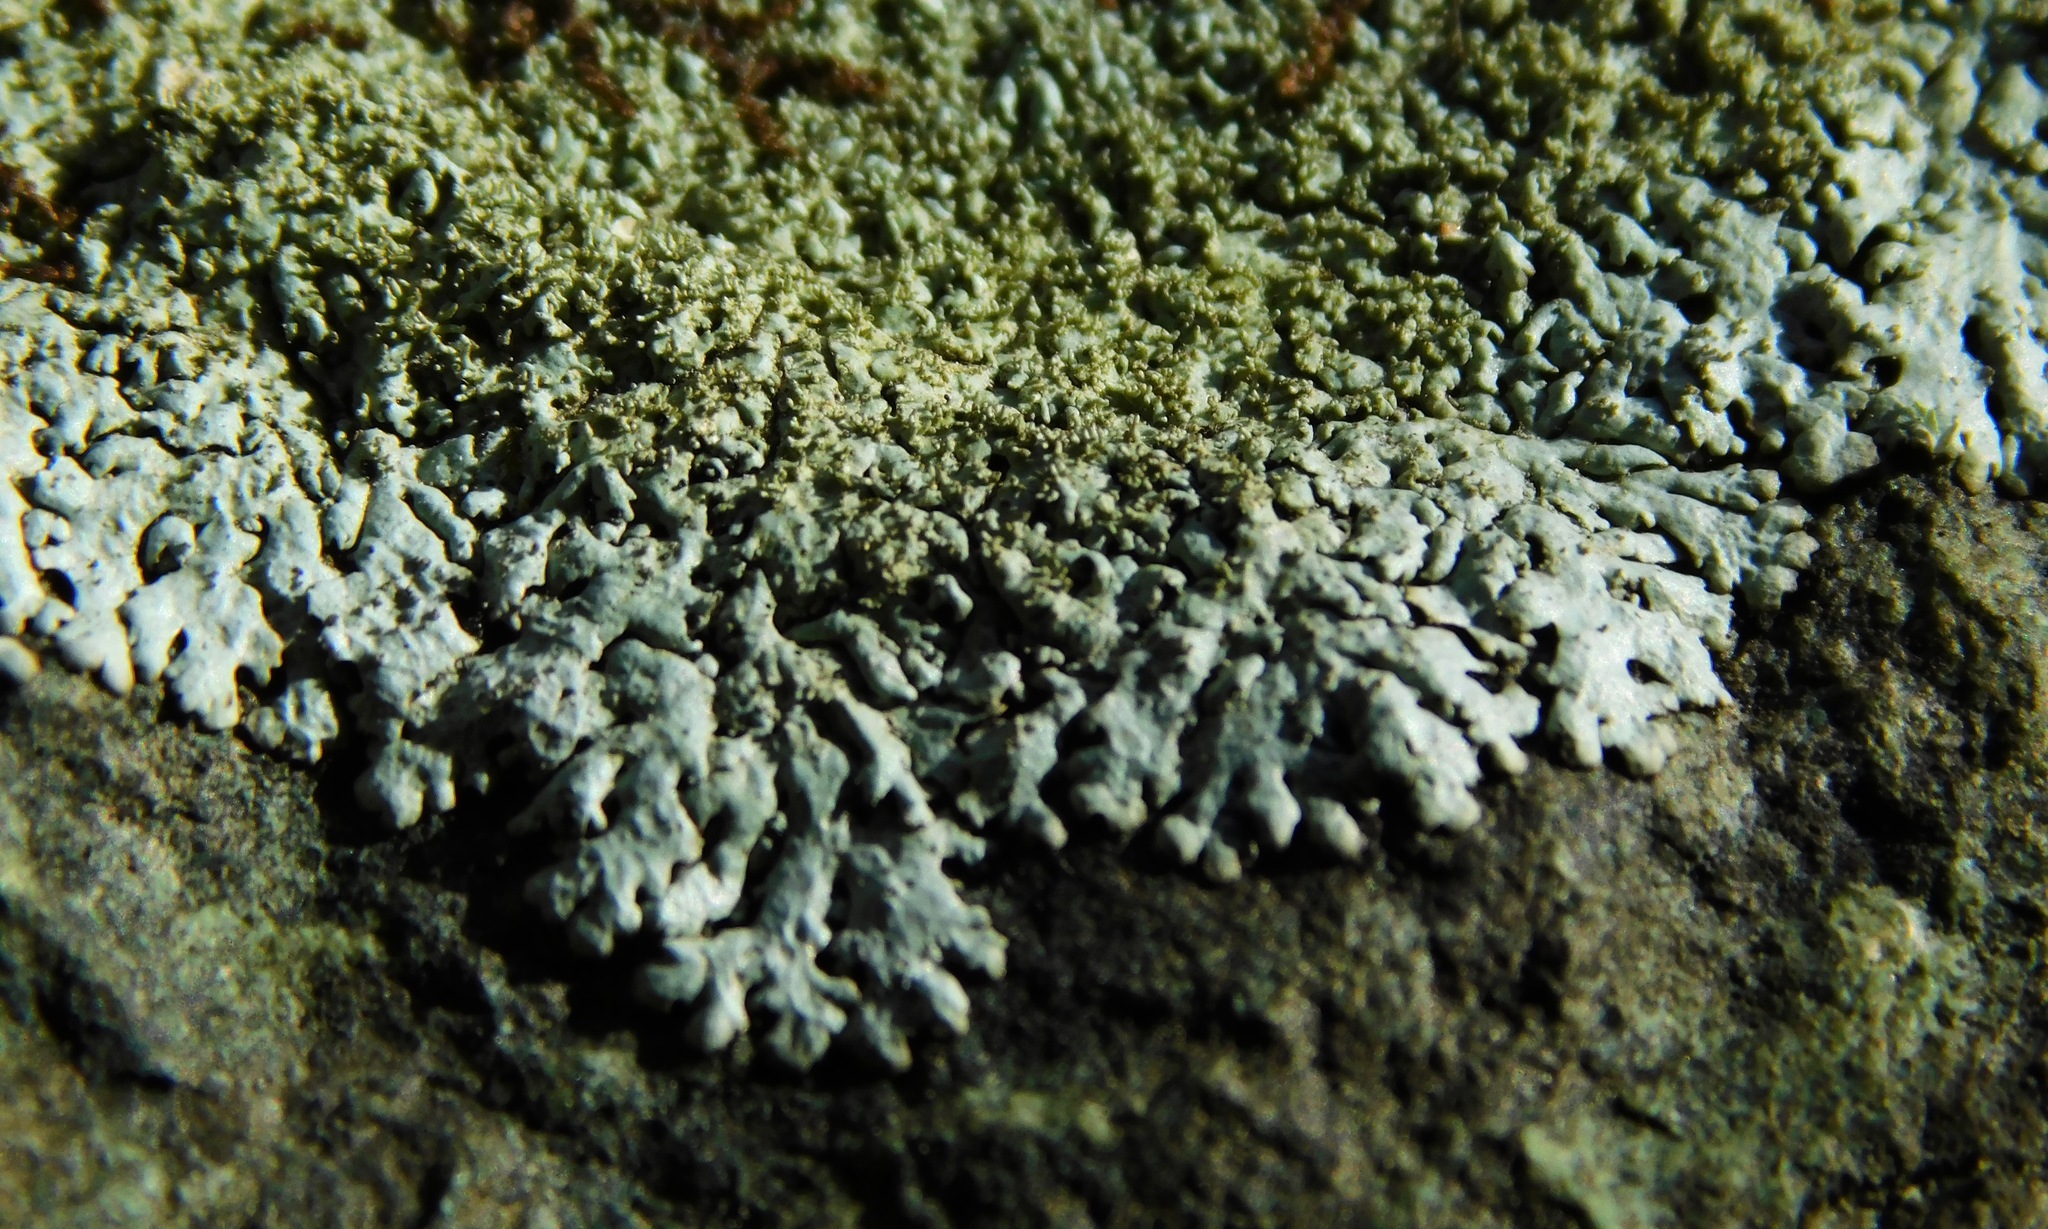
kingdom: Fungi
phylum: Ascomycota
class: Lecanoromycetes
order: Lecanorales
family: Parmeliaceae
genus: Myelochroa
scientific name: Myelochroa obsessa
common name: Rock axil-bristle lichen
